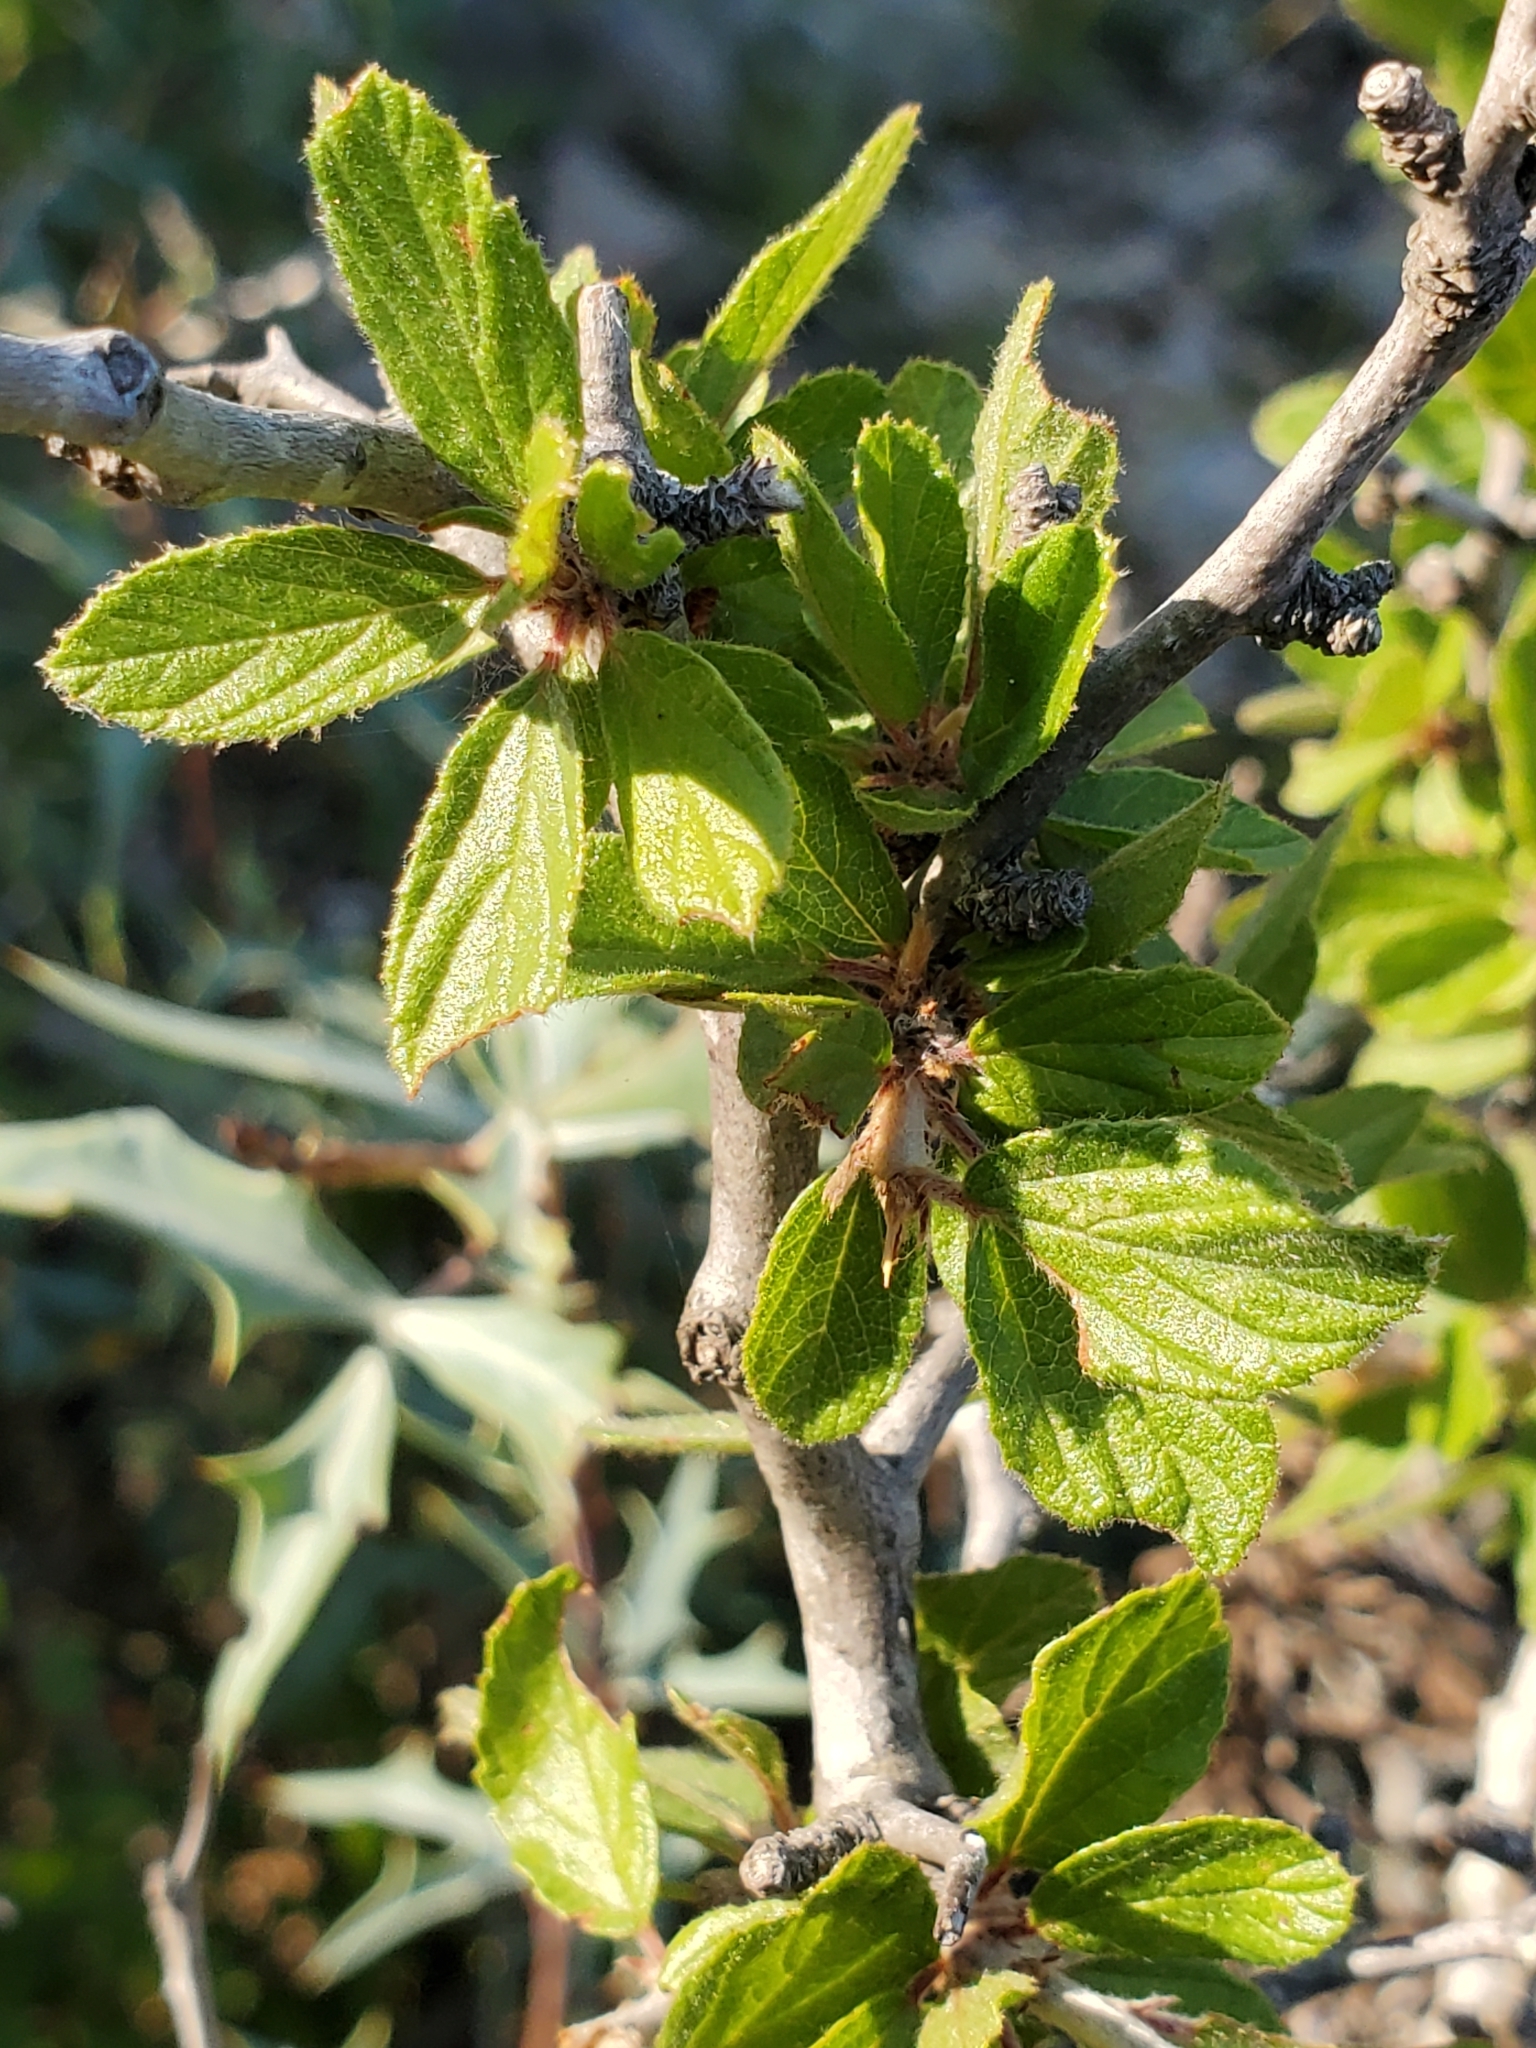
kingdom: Plantae
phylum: Tracheophyta
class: Magnoliopsida
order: Rosales
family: Rhamnaceae
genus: Colubrina
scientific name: Colubrina texensis
